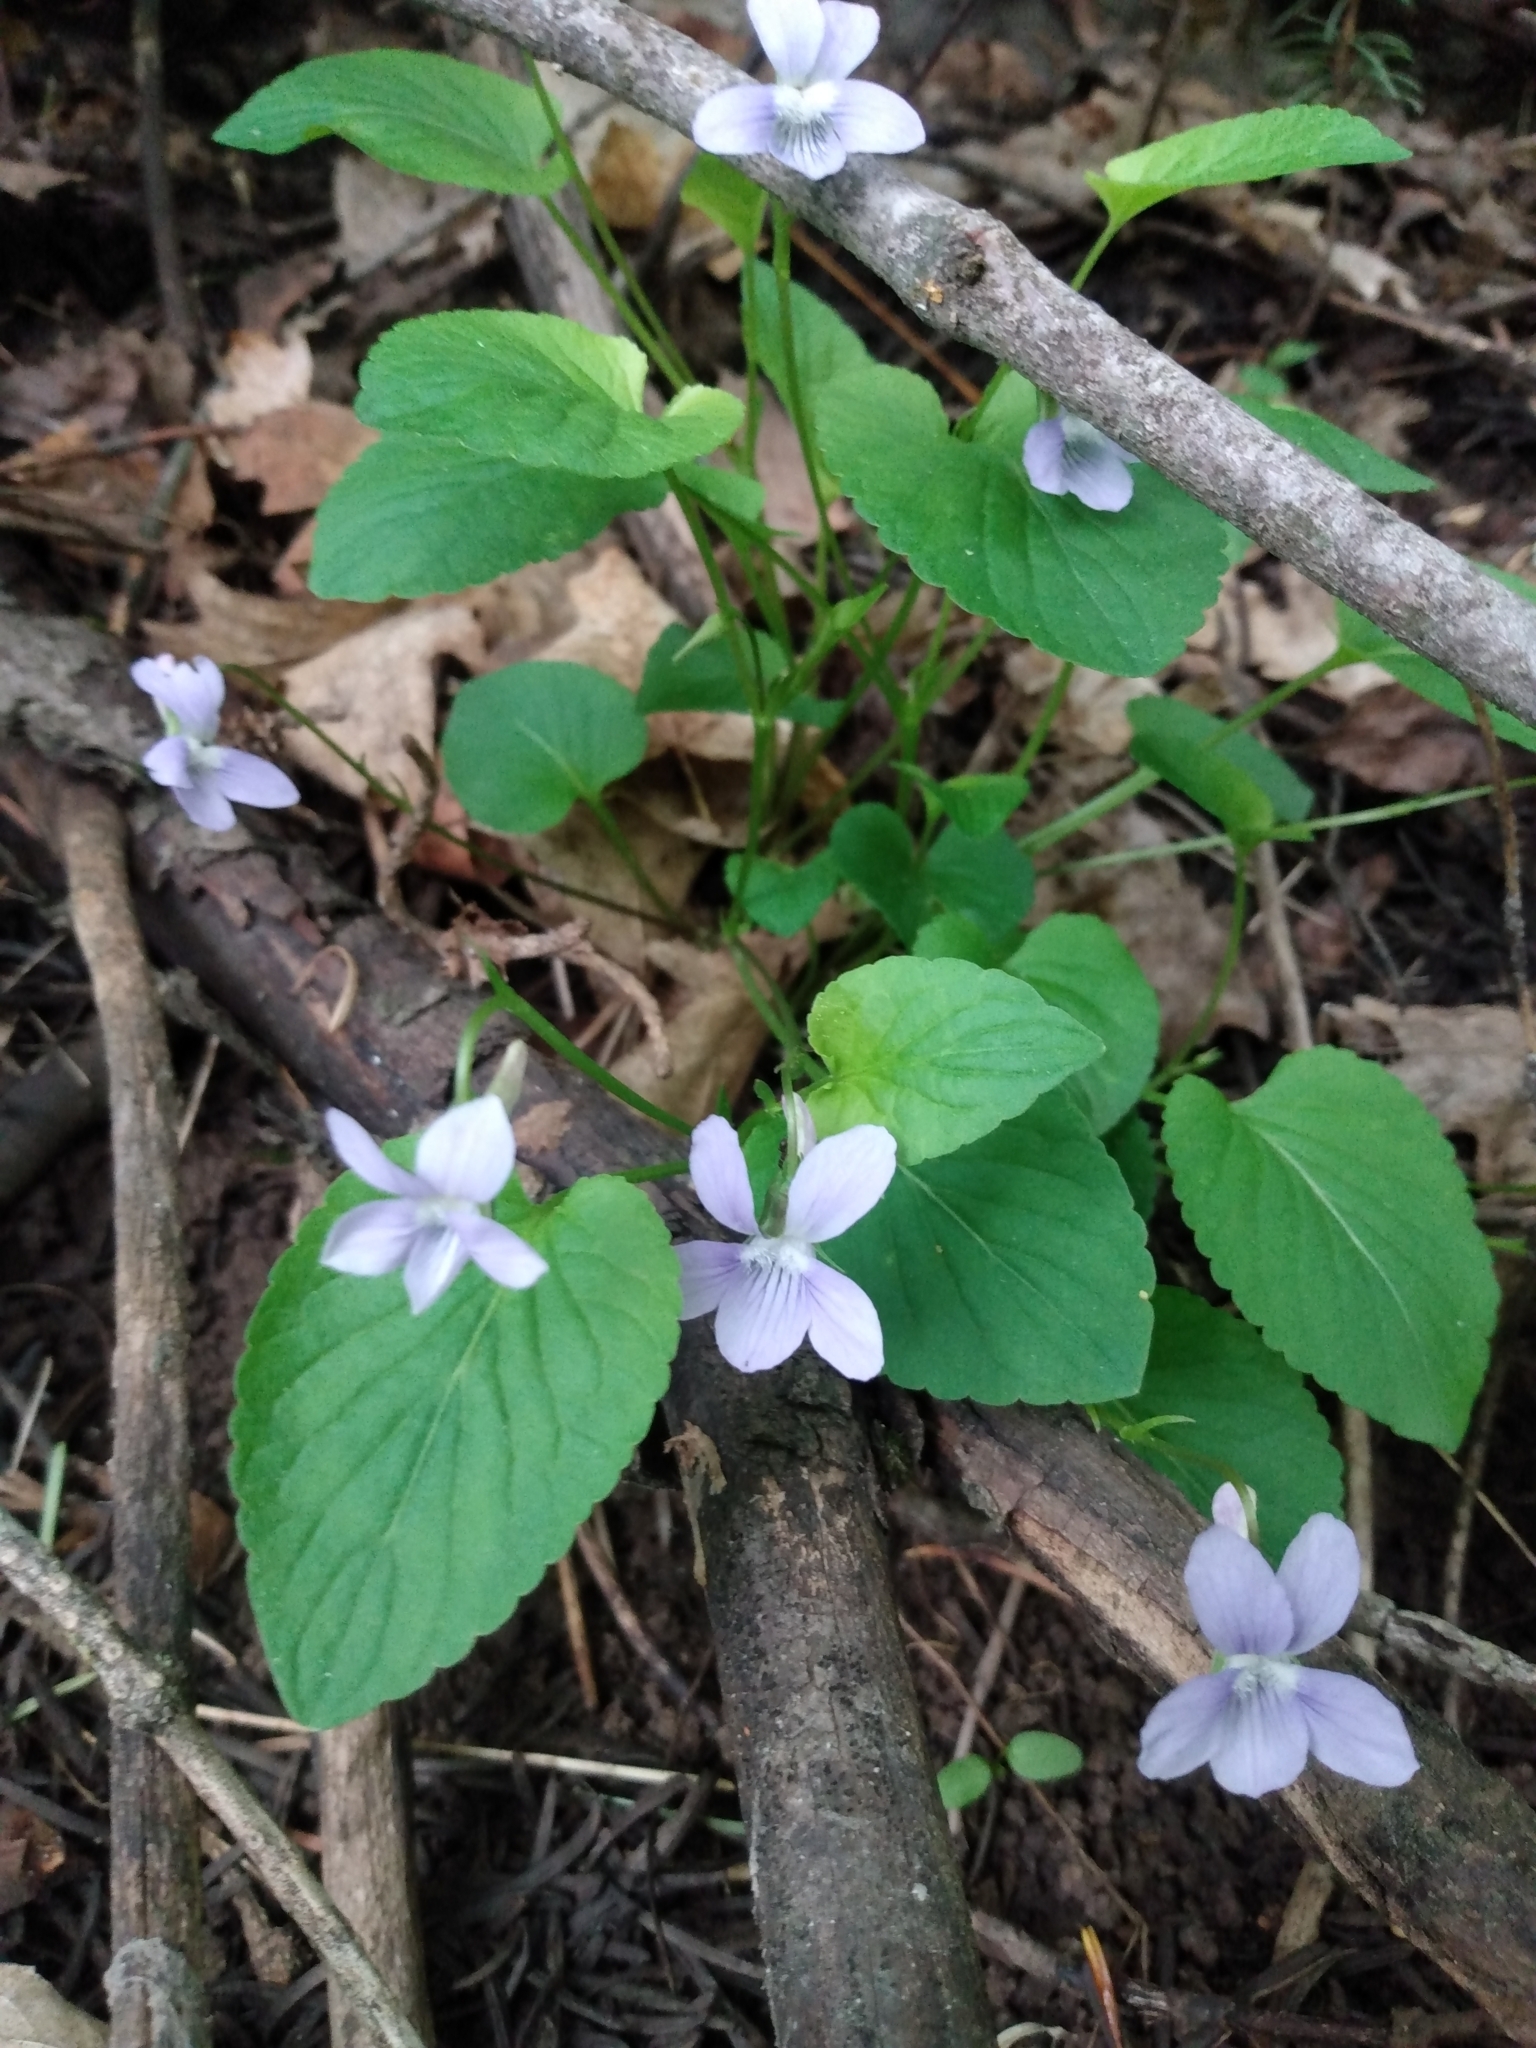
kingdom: Plantae
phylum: Tracheophyta
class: Magnoliopsida
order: Malpighiales
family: Violaceae
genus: Viola
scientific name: Viola adunca
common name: Sand violet
